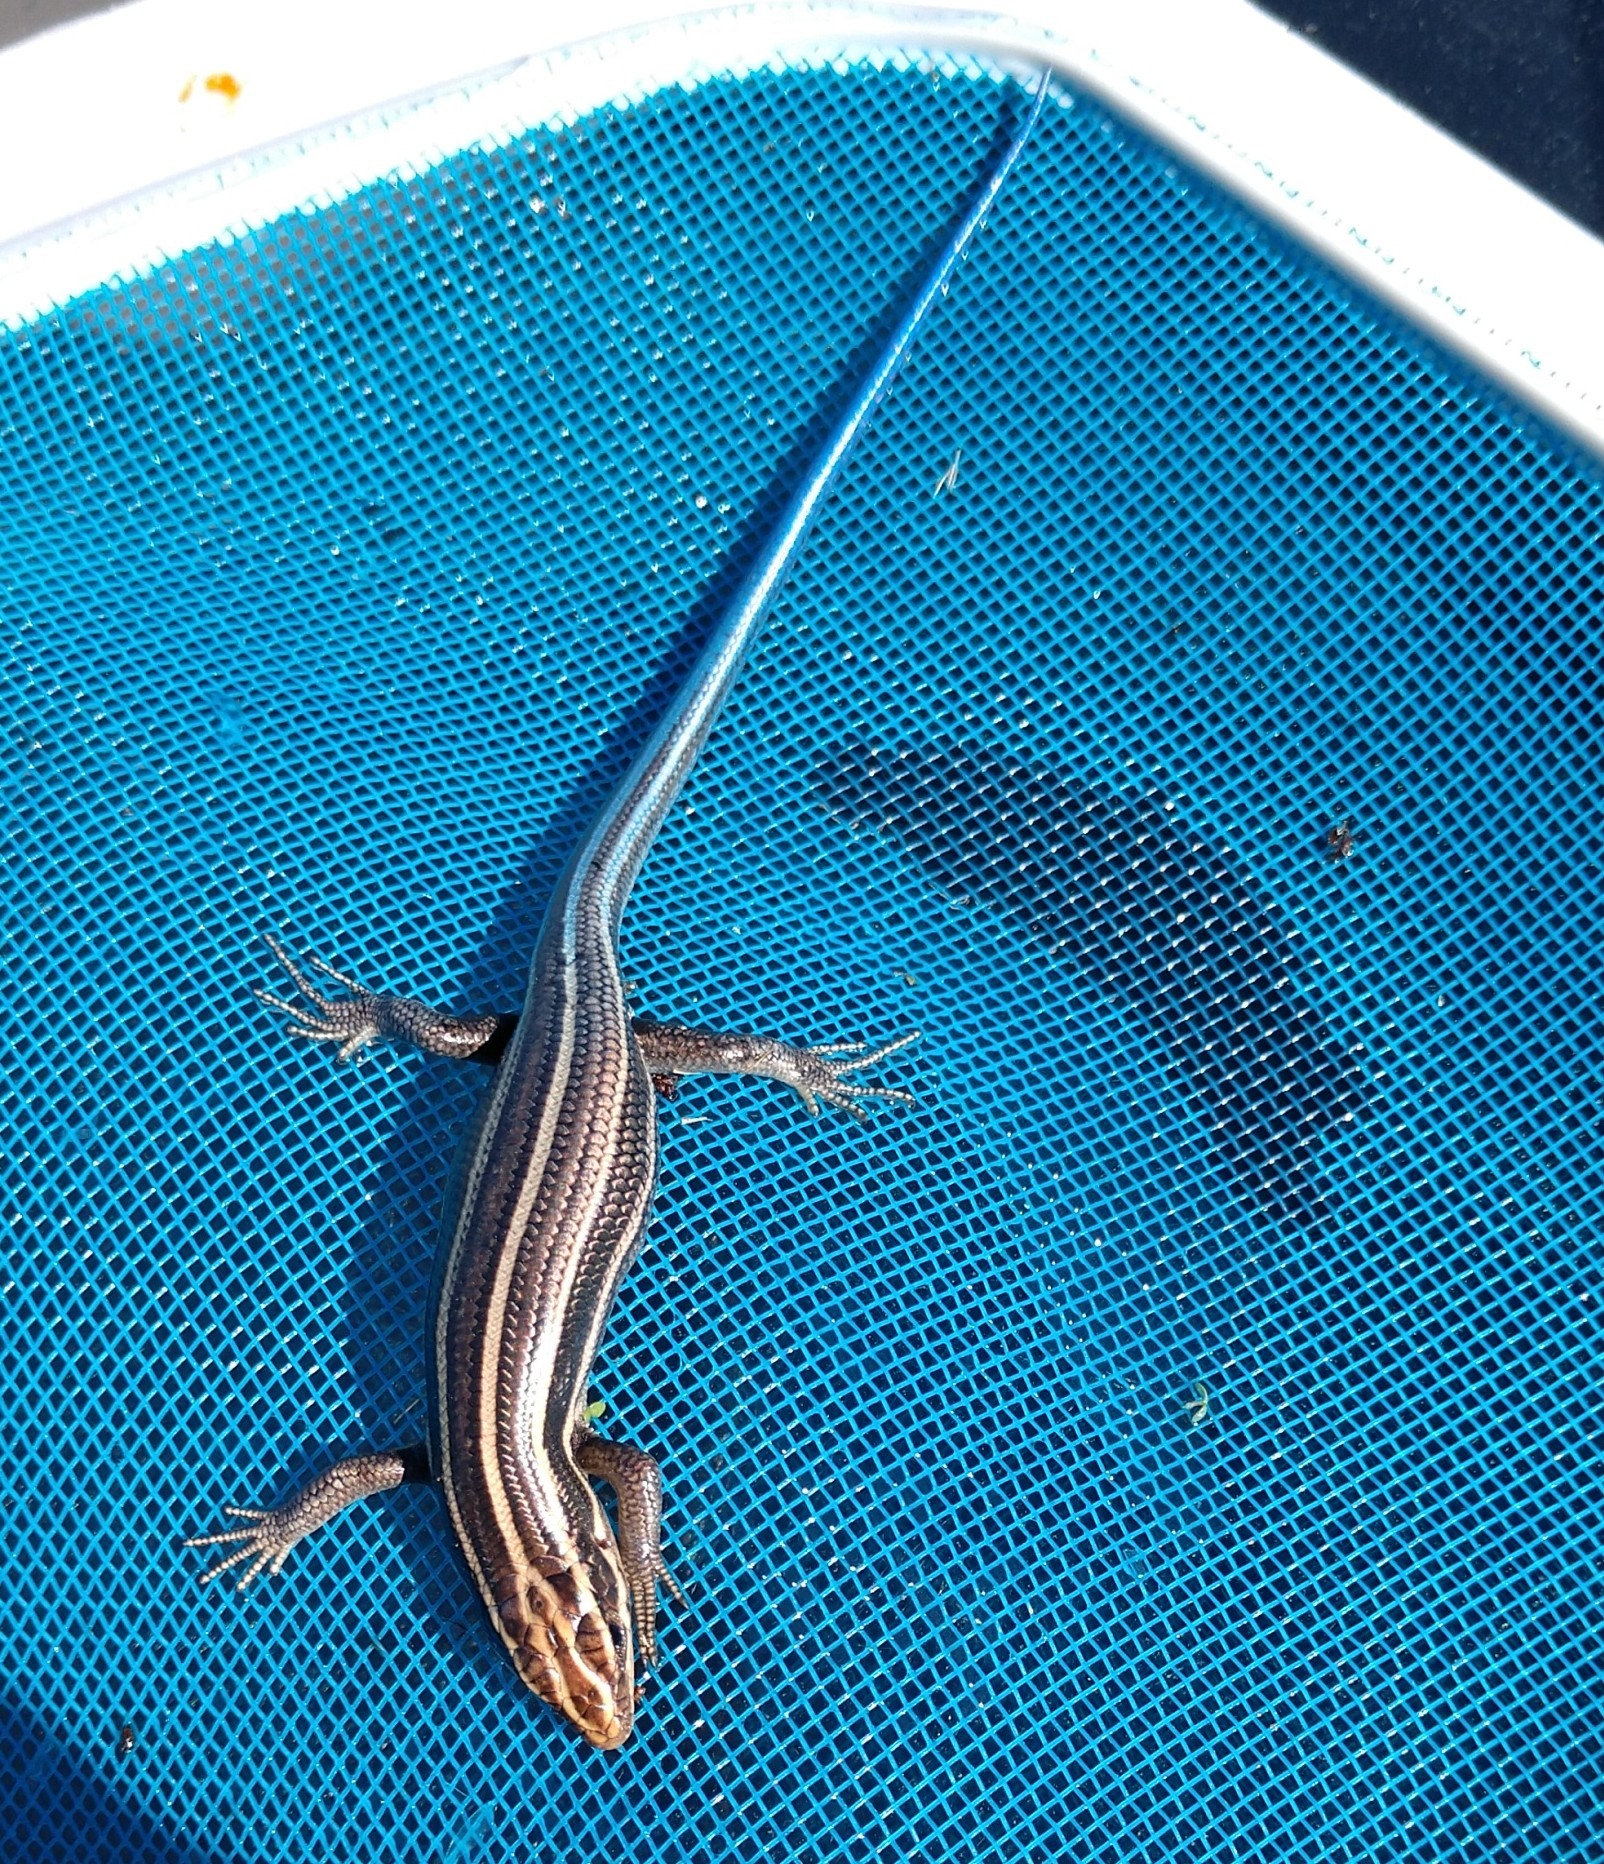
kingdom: Animalia
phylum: Chordata
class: Squamata
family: Scincidae
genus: Plestiodon
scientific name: Plestiodon fasciatus
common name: Five-lined skink
